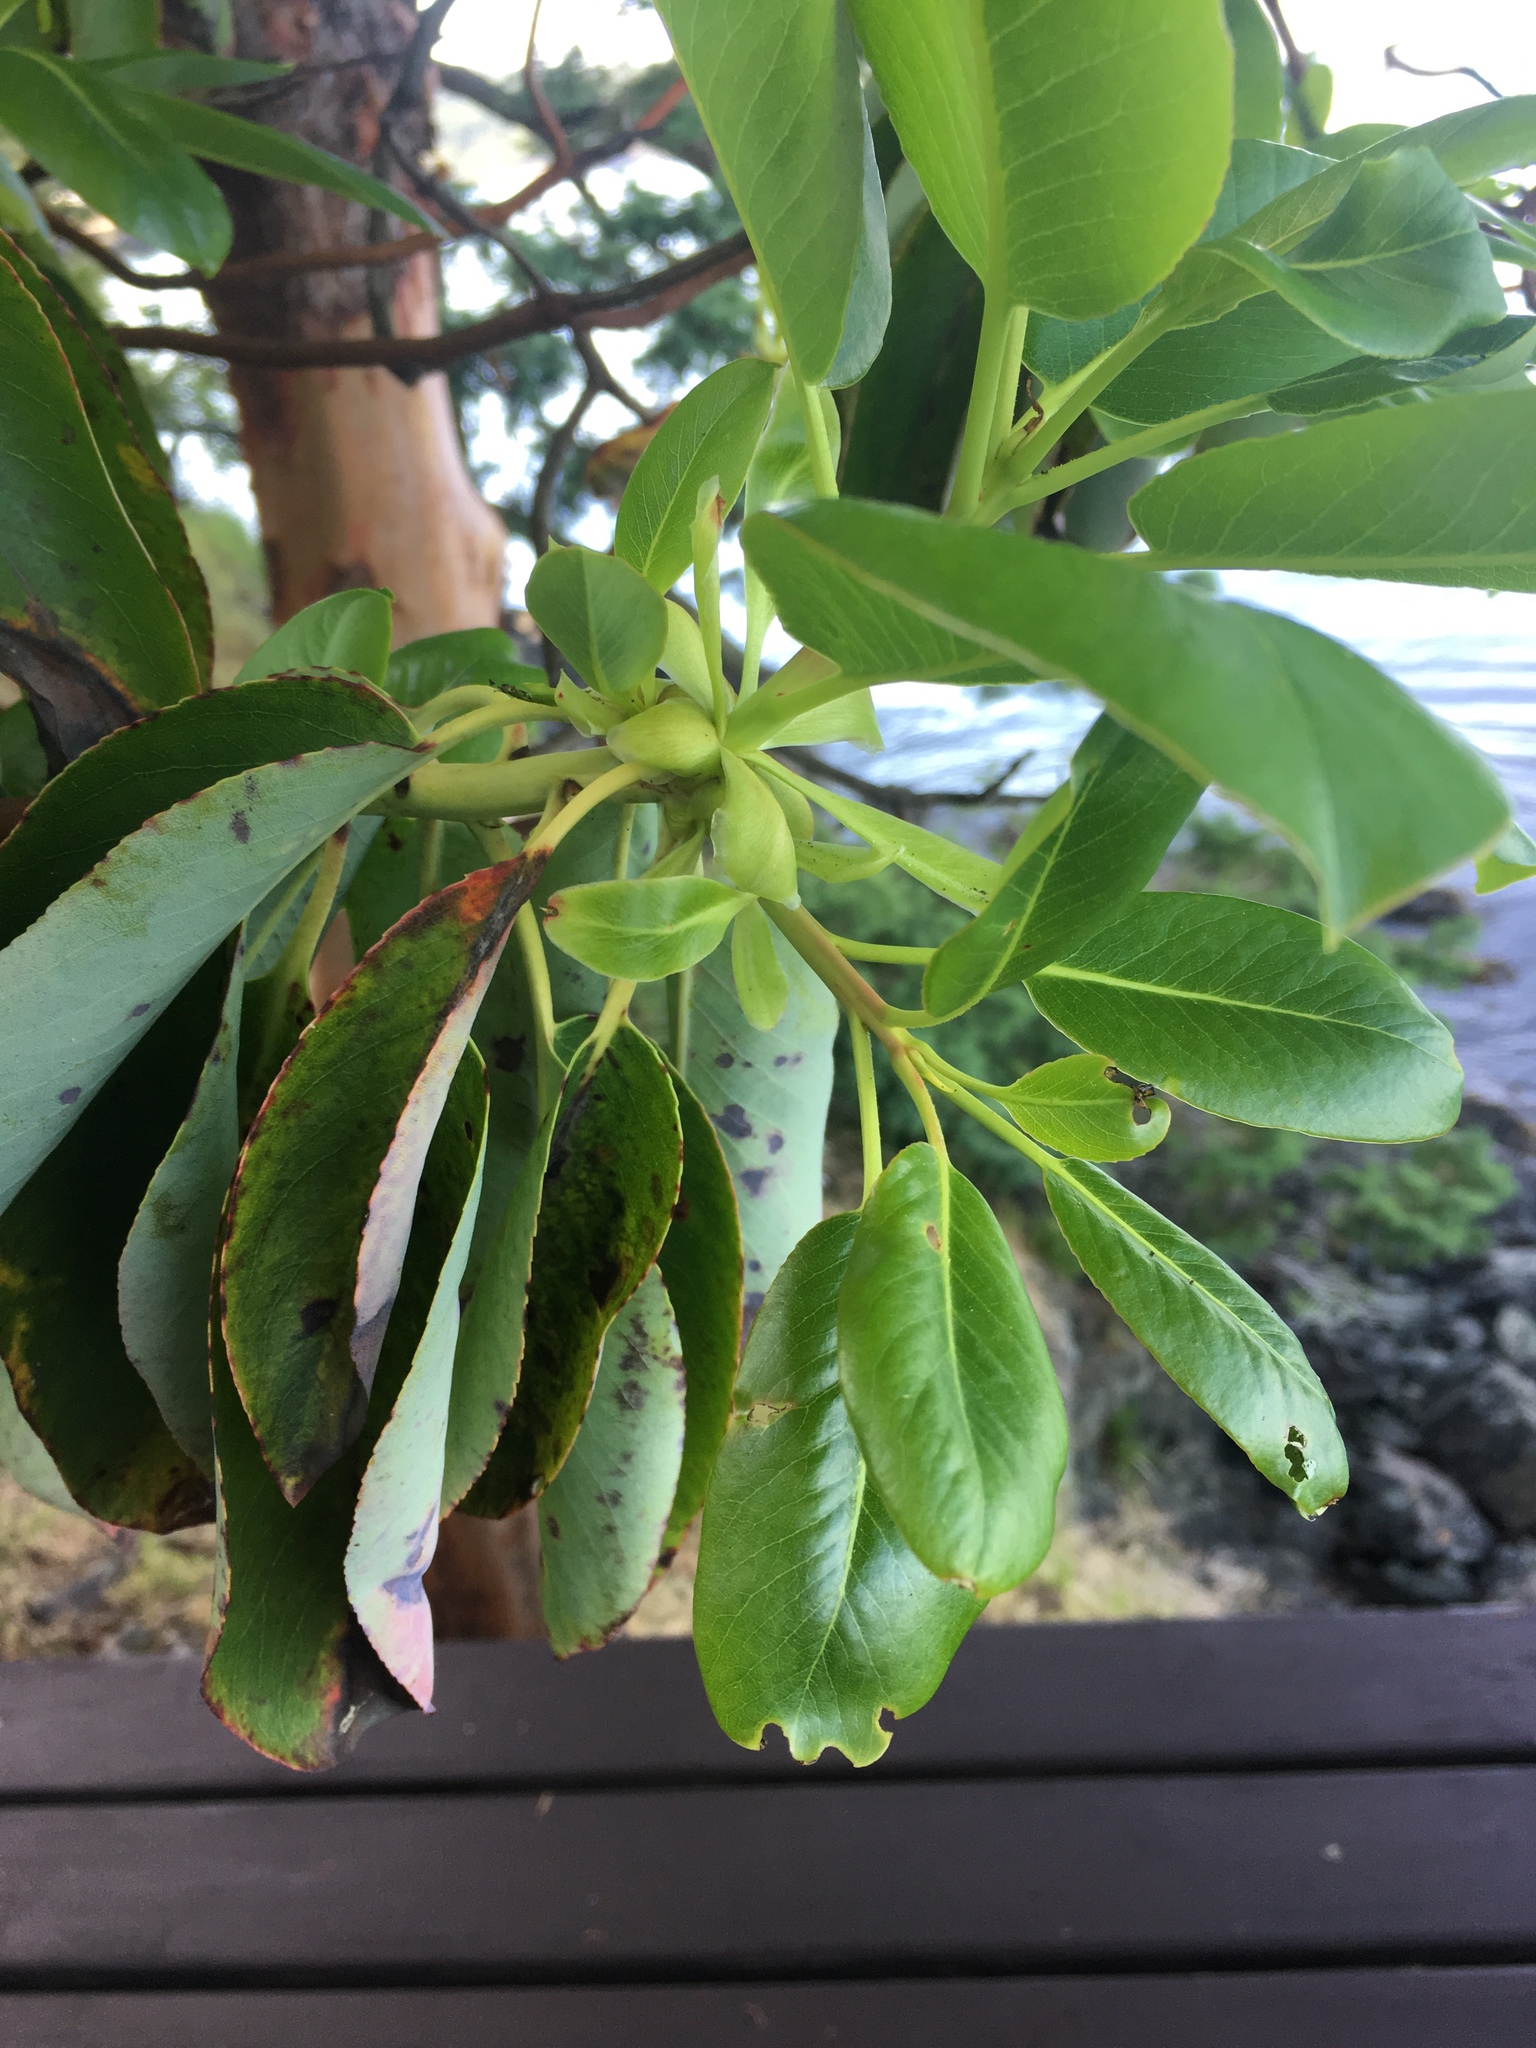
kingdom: Plantae
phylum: Tracheophyta
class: Magnoliopsida
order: Ericales
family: Ericaceae
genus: Arbutus
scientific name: Arbutus menziesii
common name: Pacific madrone
